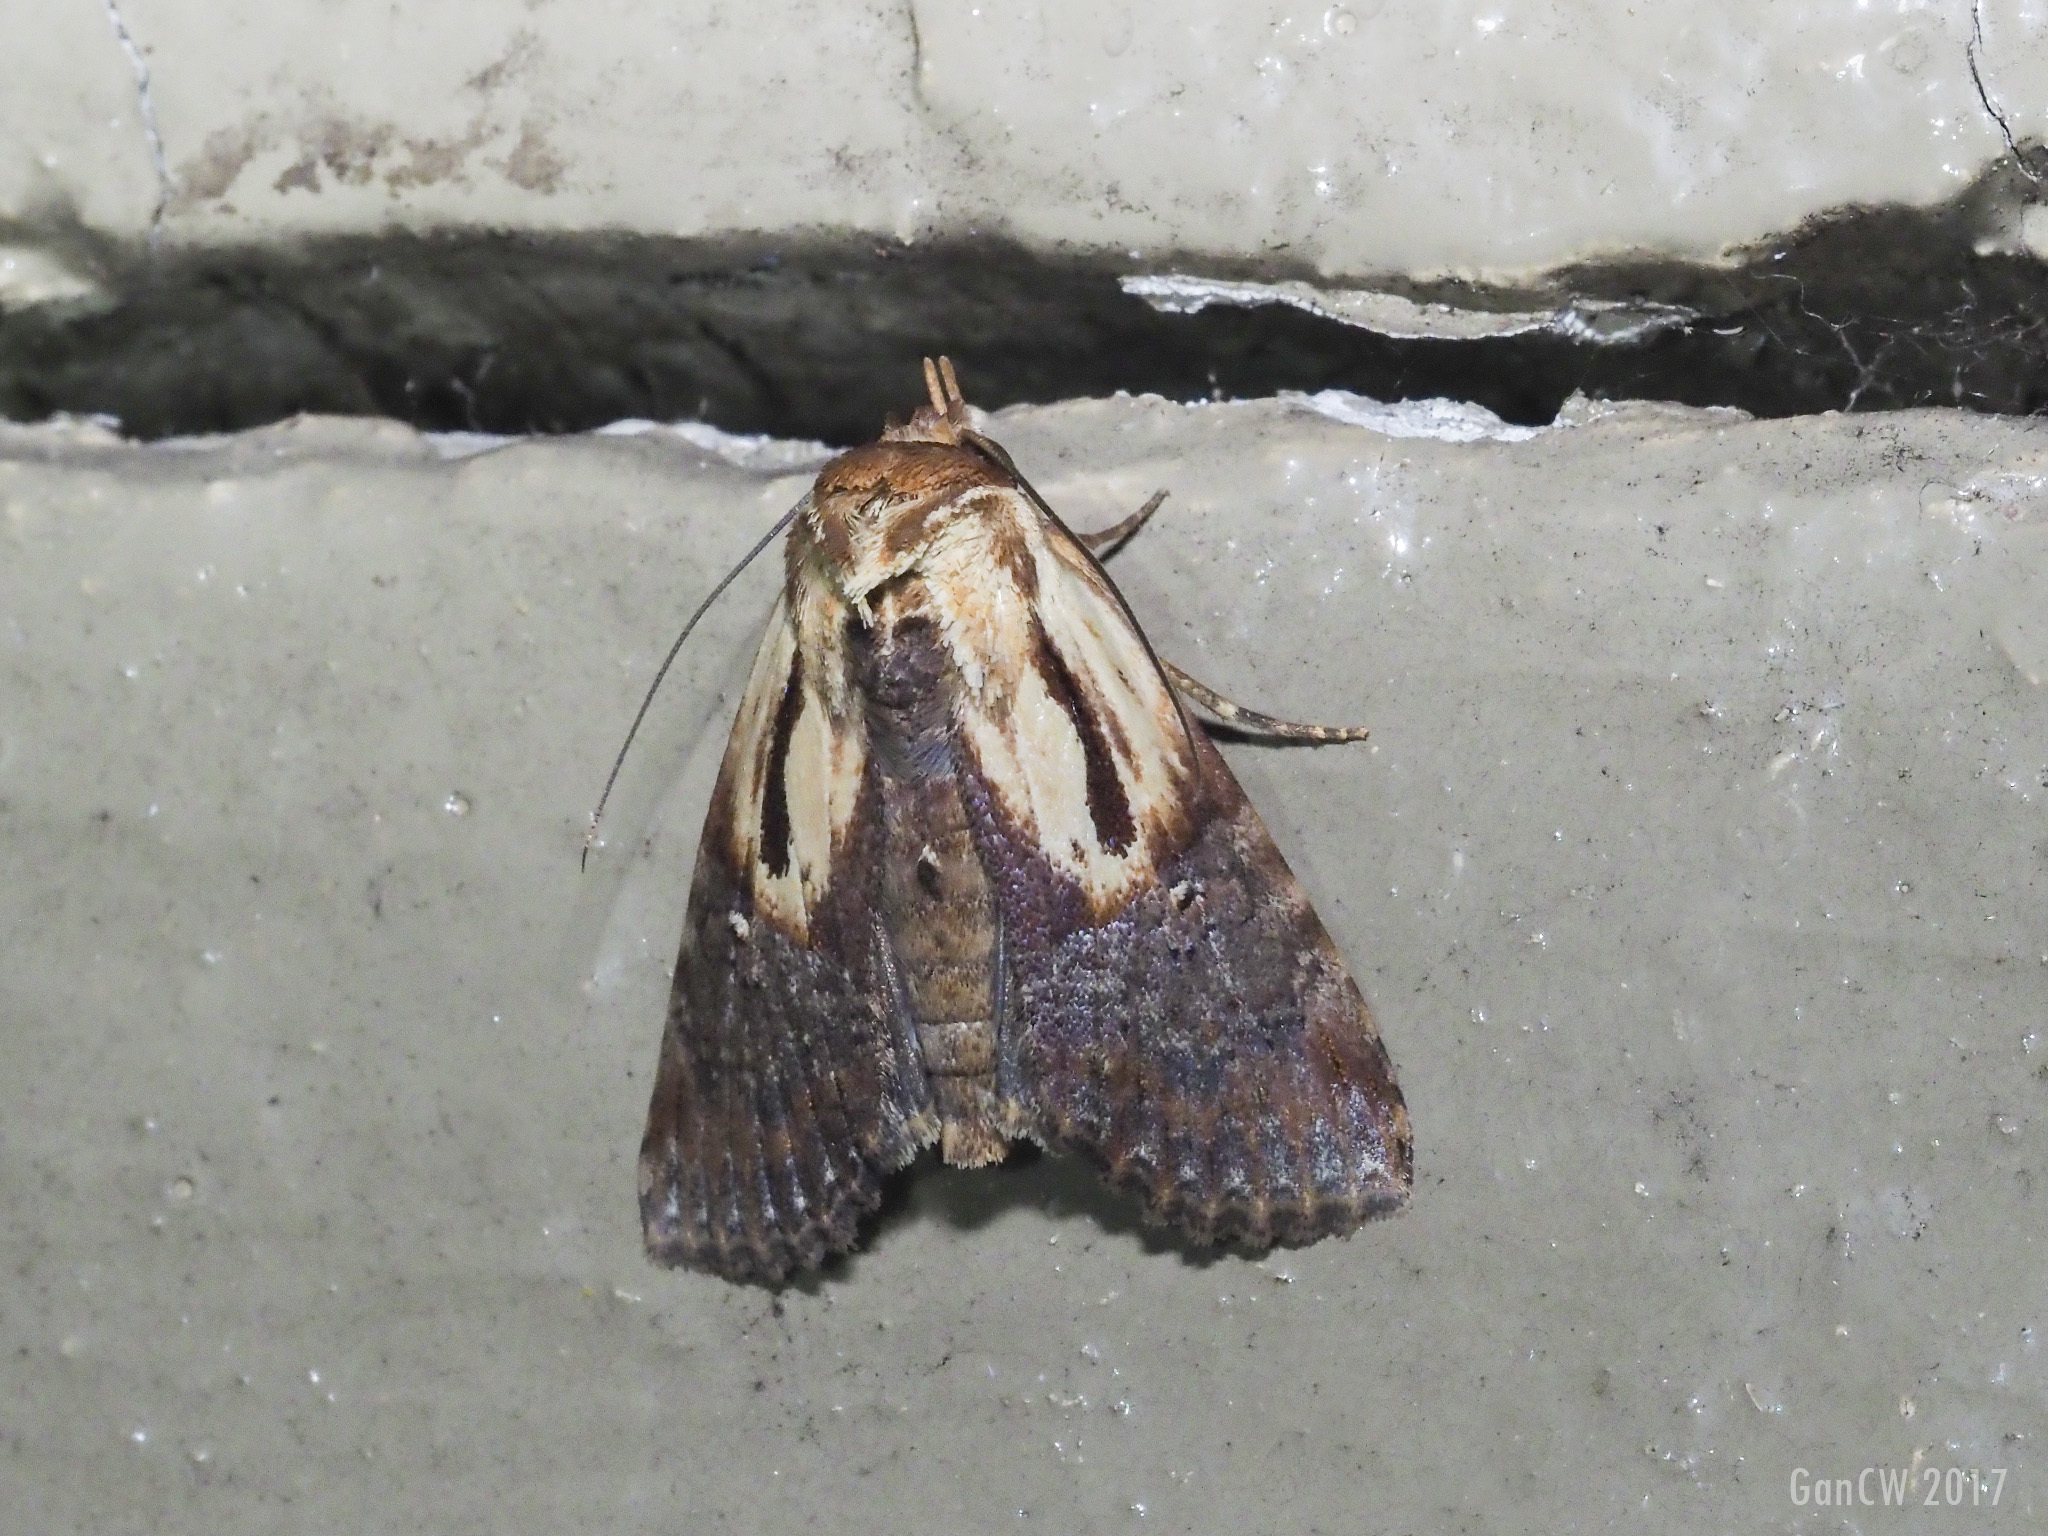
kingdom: Animalia
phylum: Arthropoda
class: Insecta
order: Lepidoptera
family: Euteliidae
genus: Stictoptera
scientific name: Stictoptera signifera
